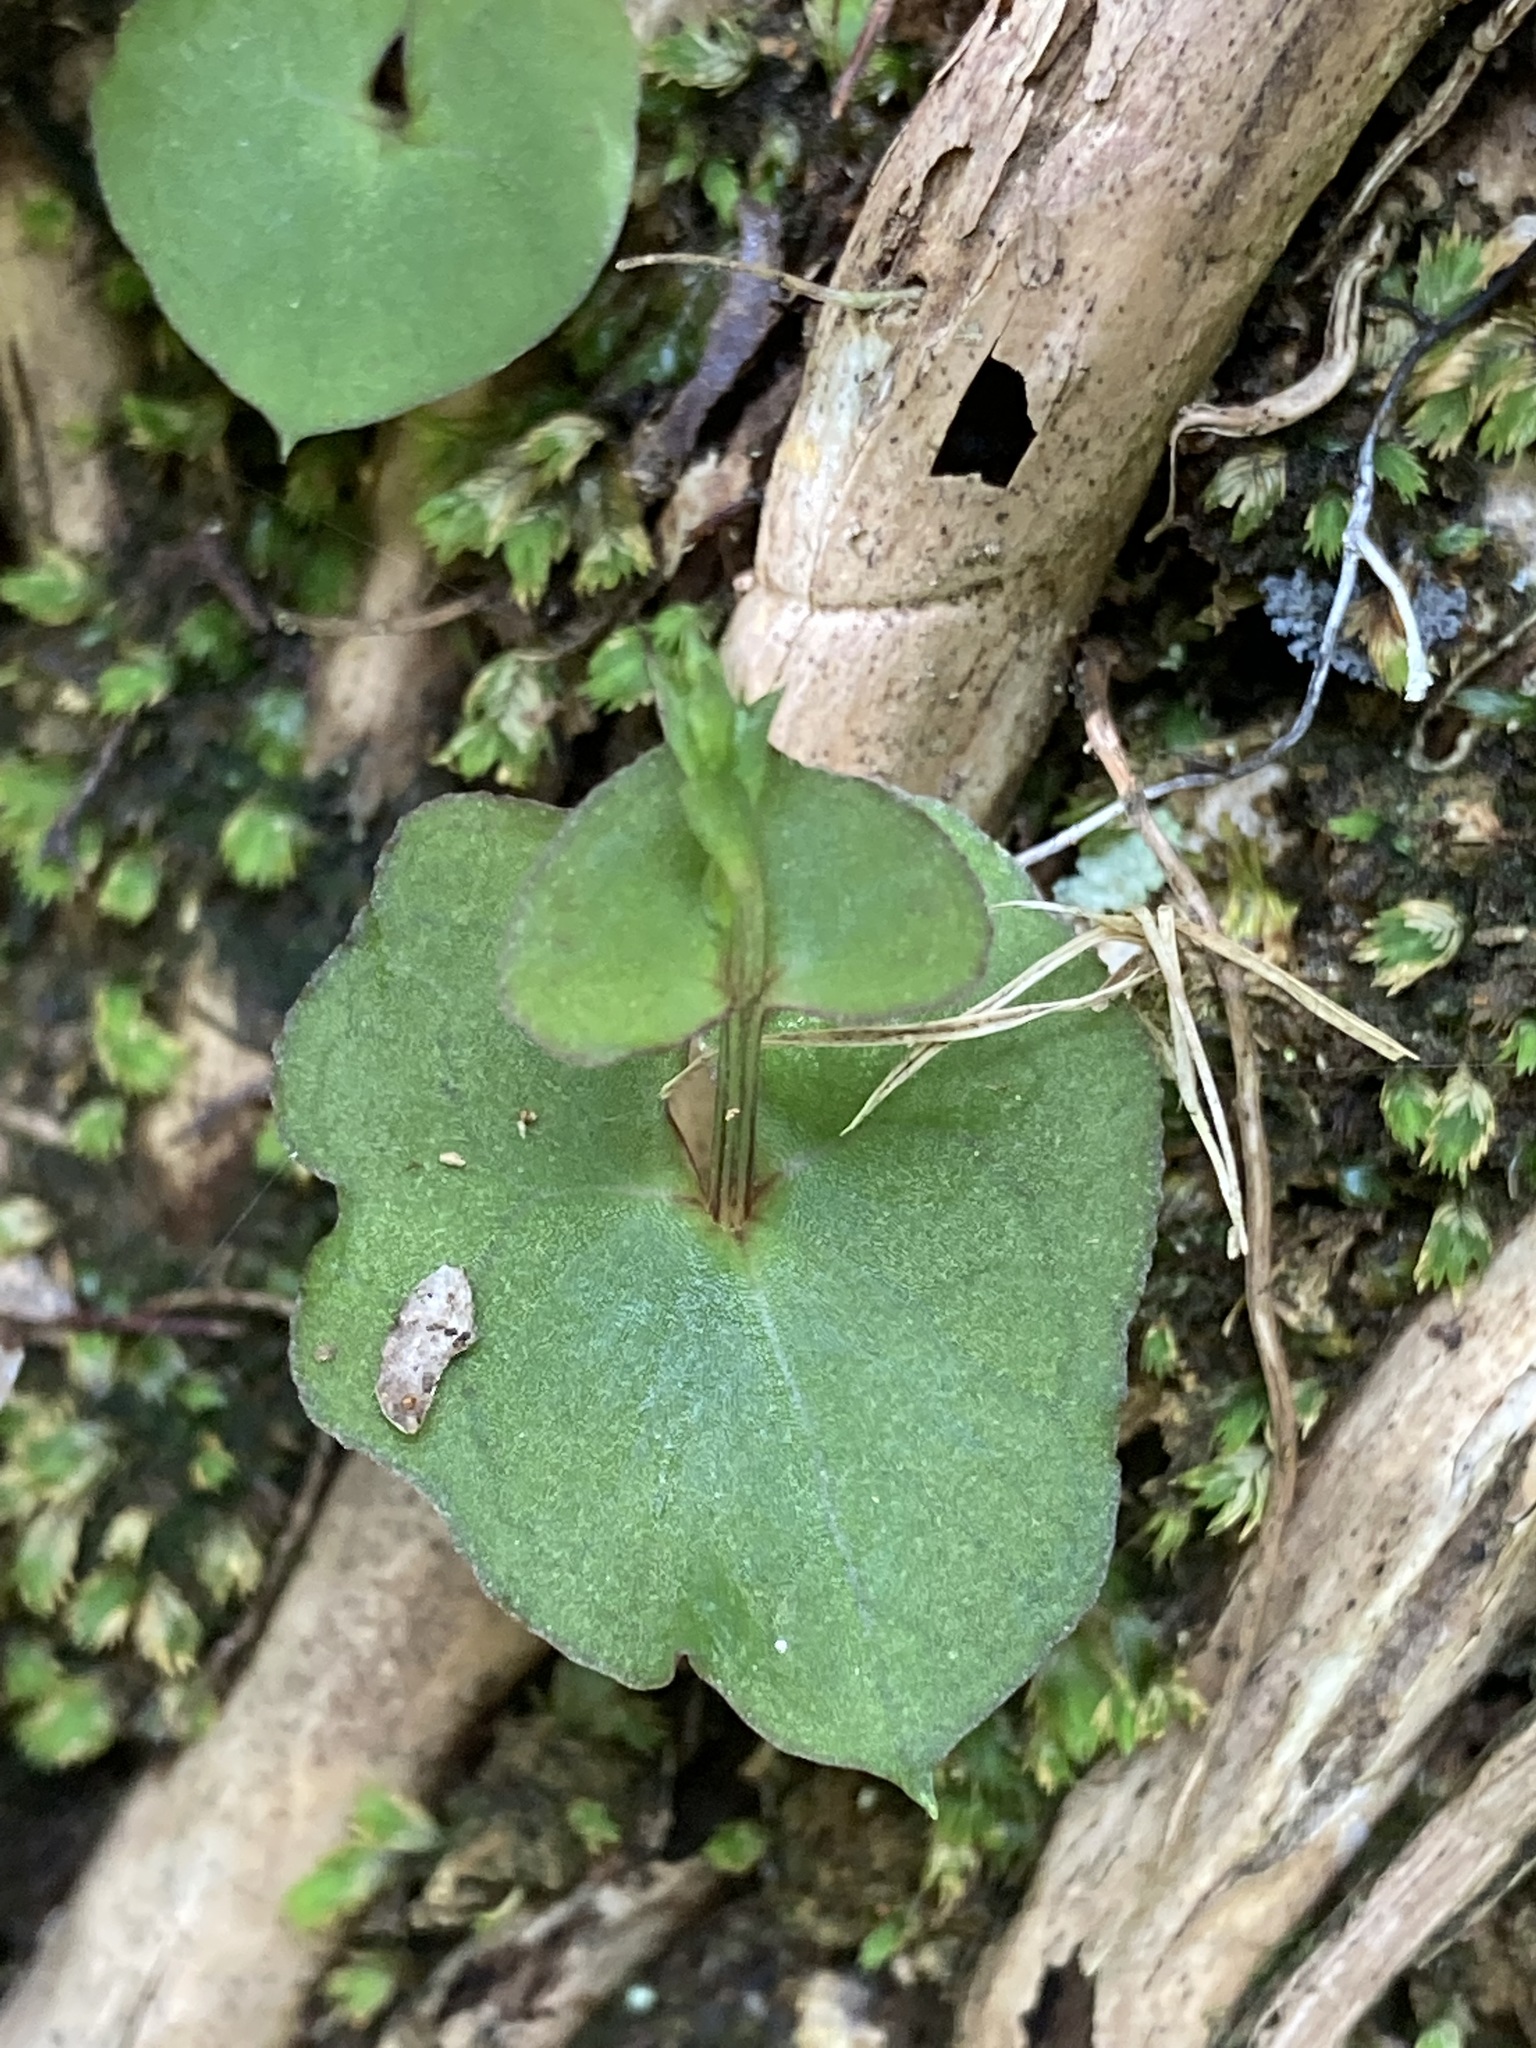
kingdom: Plantae
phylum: Tracheophyta
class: Liliopsida
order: Asparagales
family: Orchidaceae
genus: Acianthus
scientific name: Acianthus sinclairii
